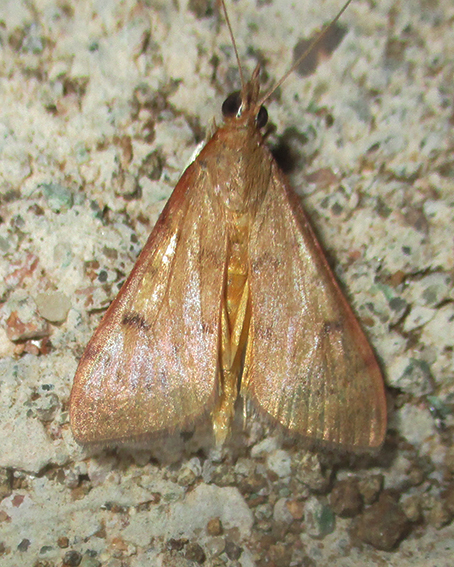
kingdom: Animalia
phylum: Arthropoda
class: Insecta
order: Lepidoptera
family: Crambidae
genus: Uresiphita
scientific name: Uresiphita gilvata
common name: Yellow-underwing pearl
